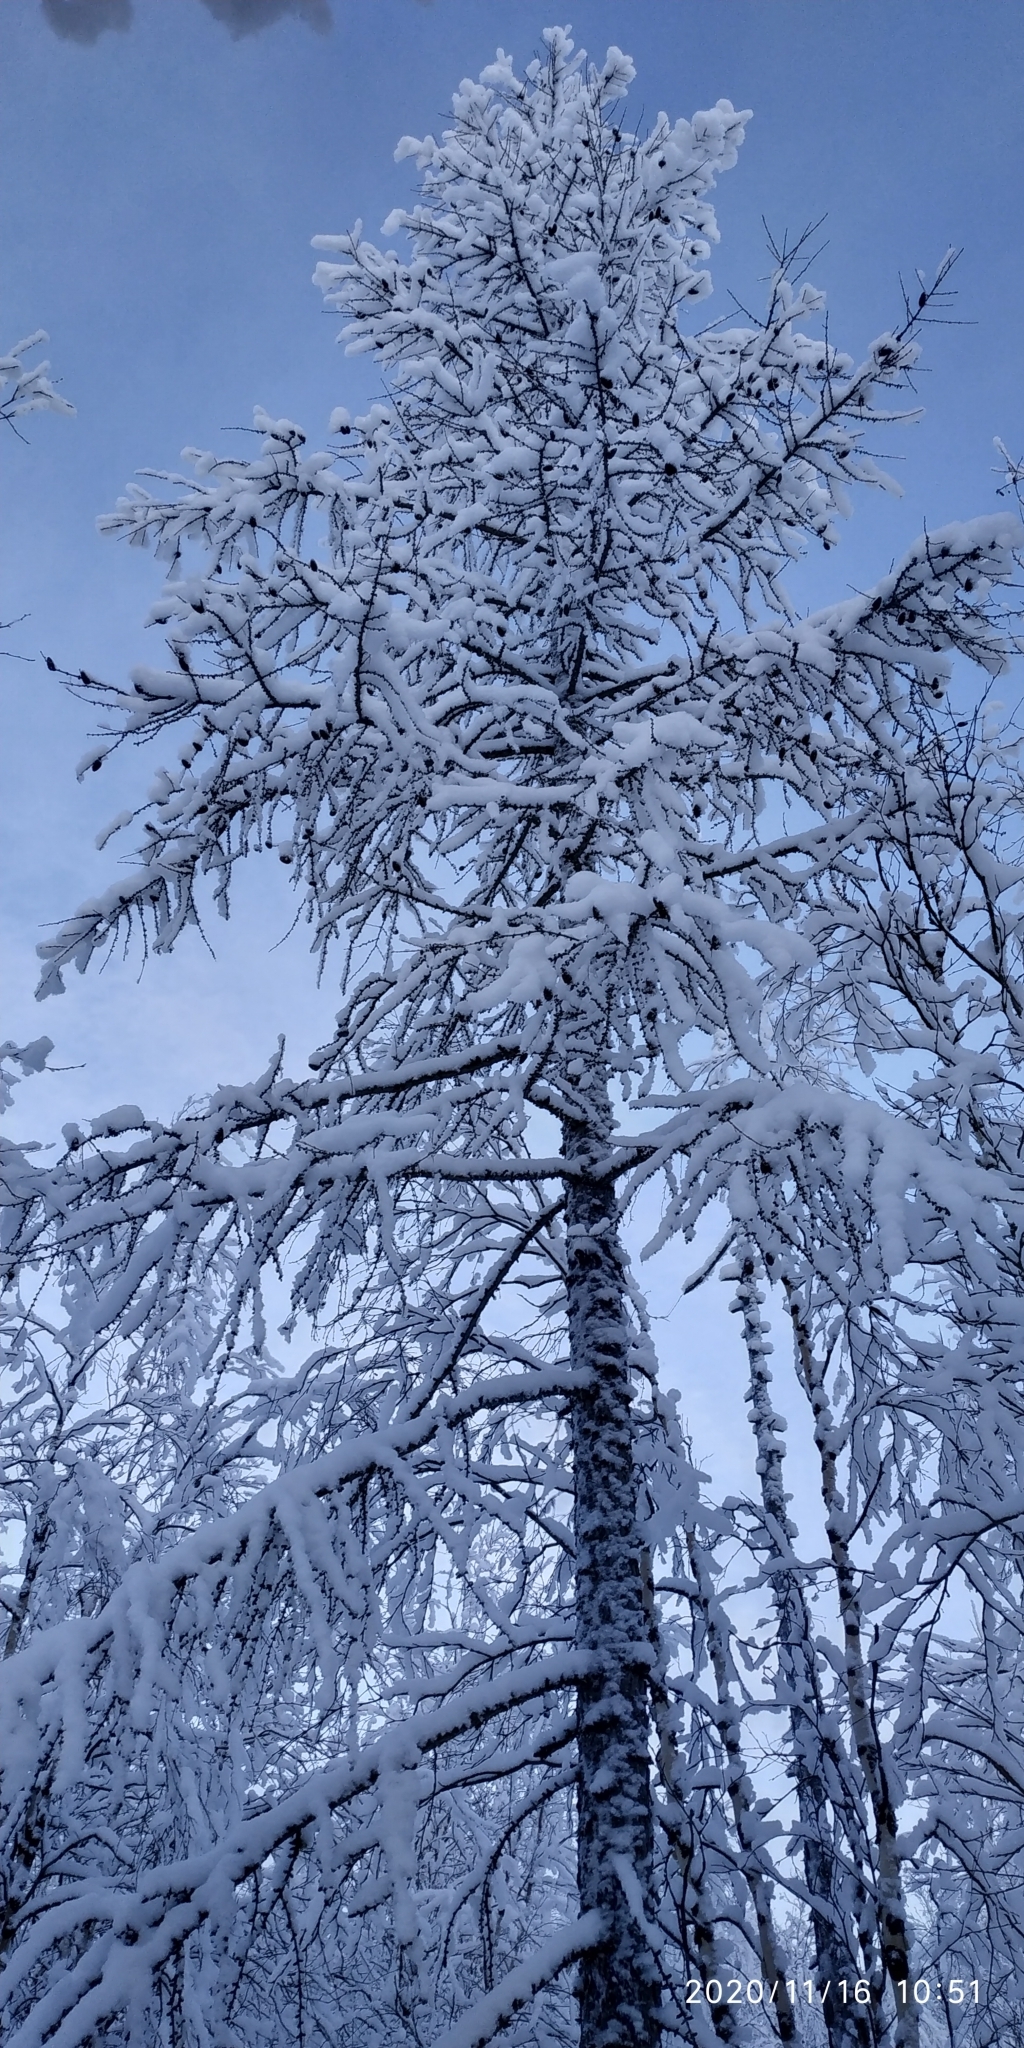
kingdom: Plantae
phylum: Tracheophyta
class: Pinopsida
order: Pinales
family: Pinaceae
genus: Larix
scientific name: Larix sibirica
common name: Siberian larch
